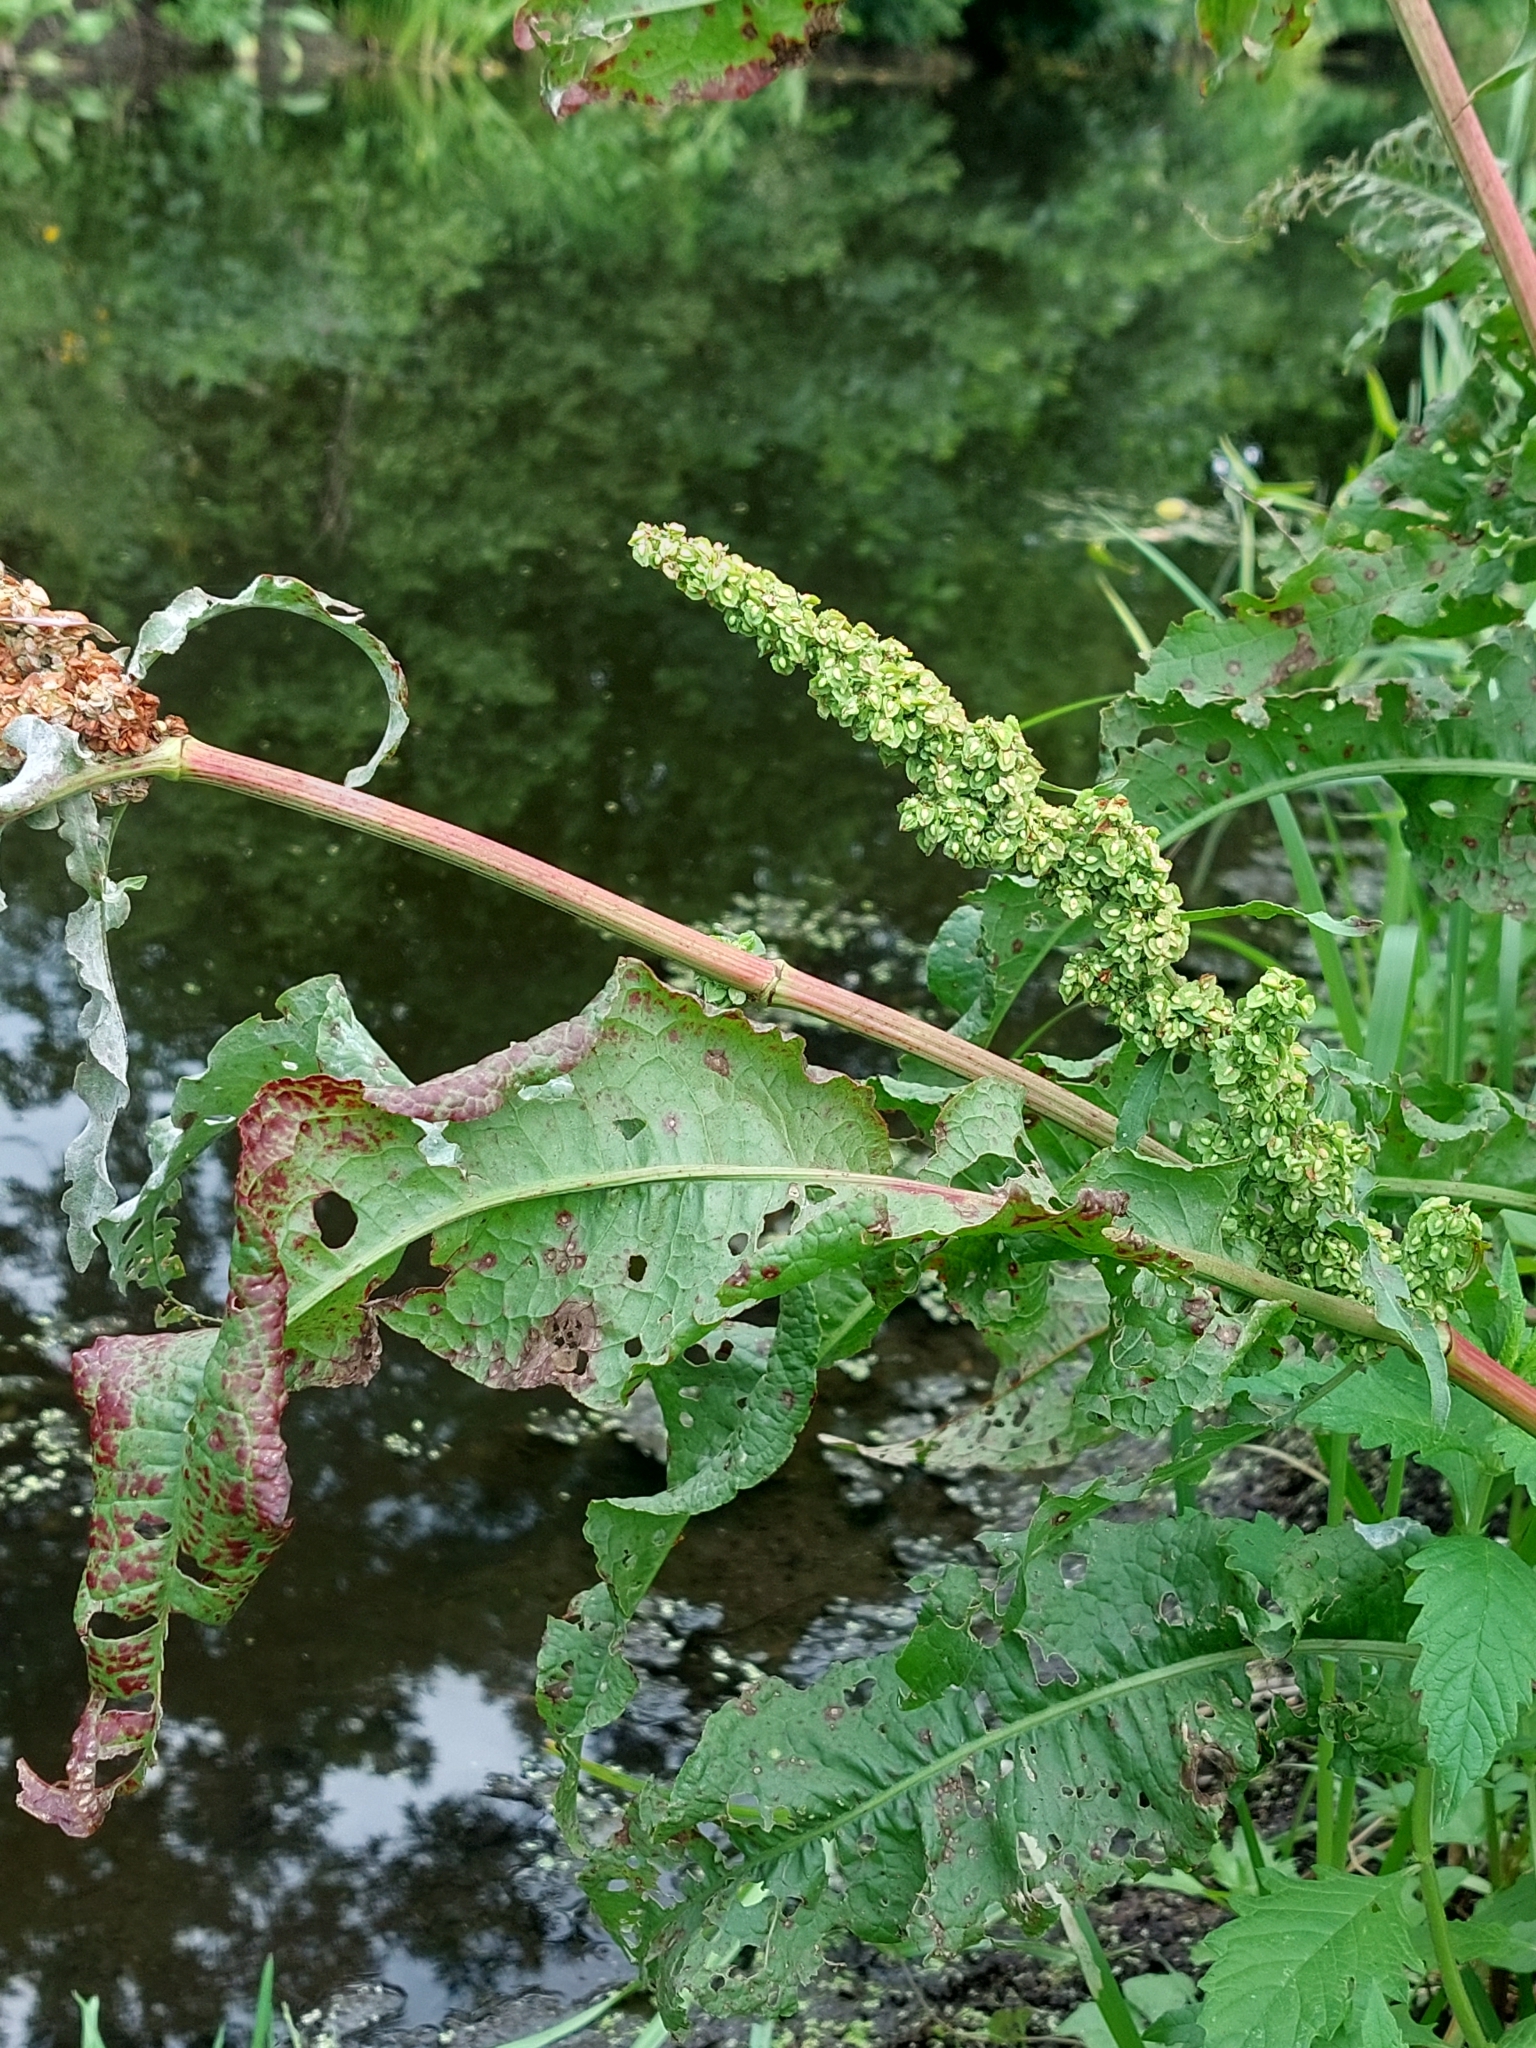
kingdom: Plantae
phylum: Tracheophyta
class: Magnoliopsida
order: Caryophyllales
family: Polygonaceae
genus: Rumex
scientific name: Rumex patientia
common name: Patience dock
